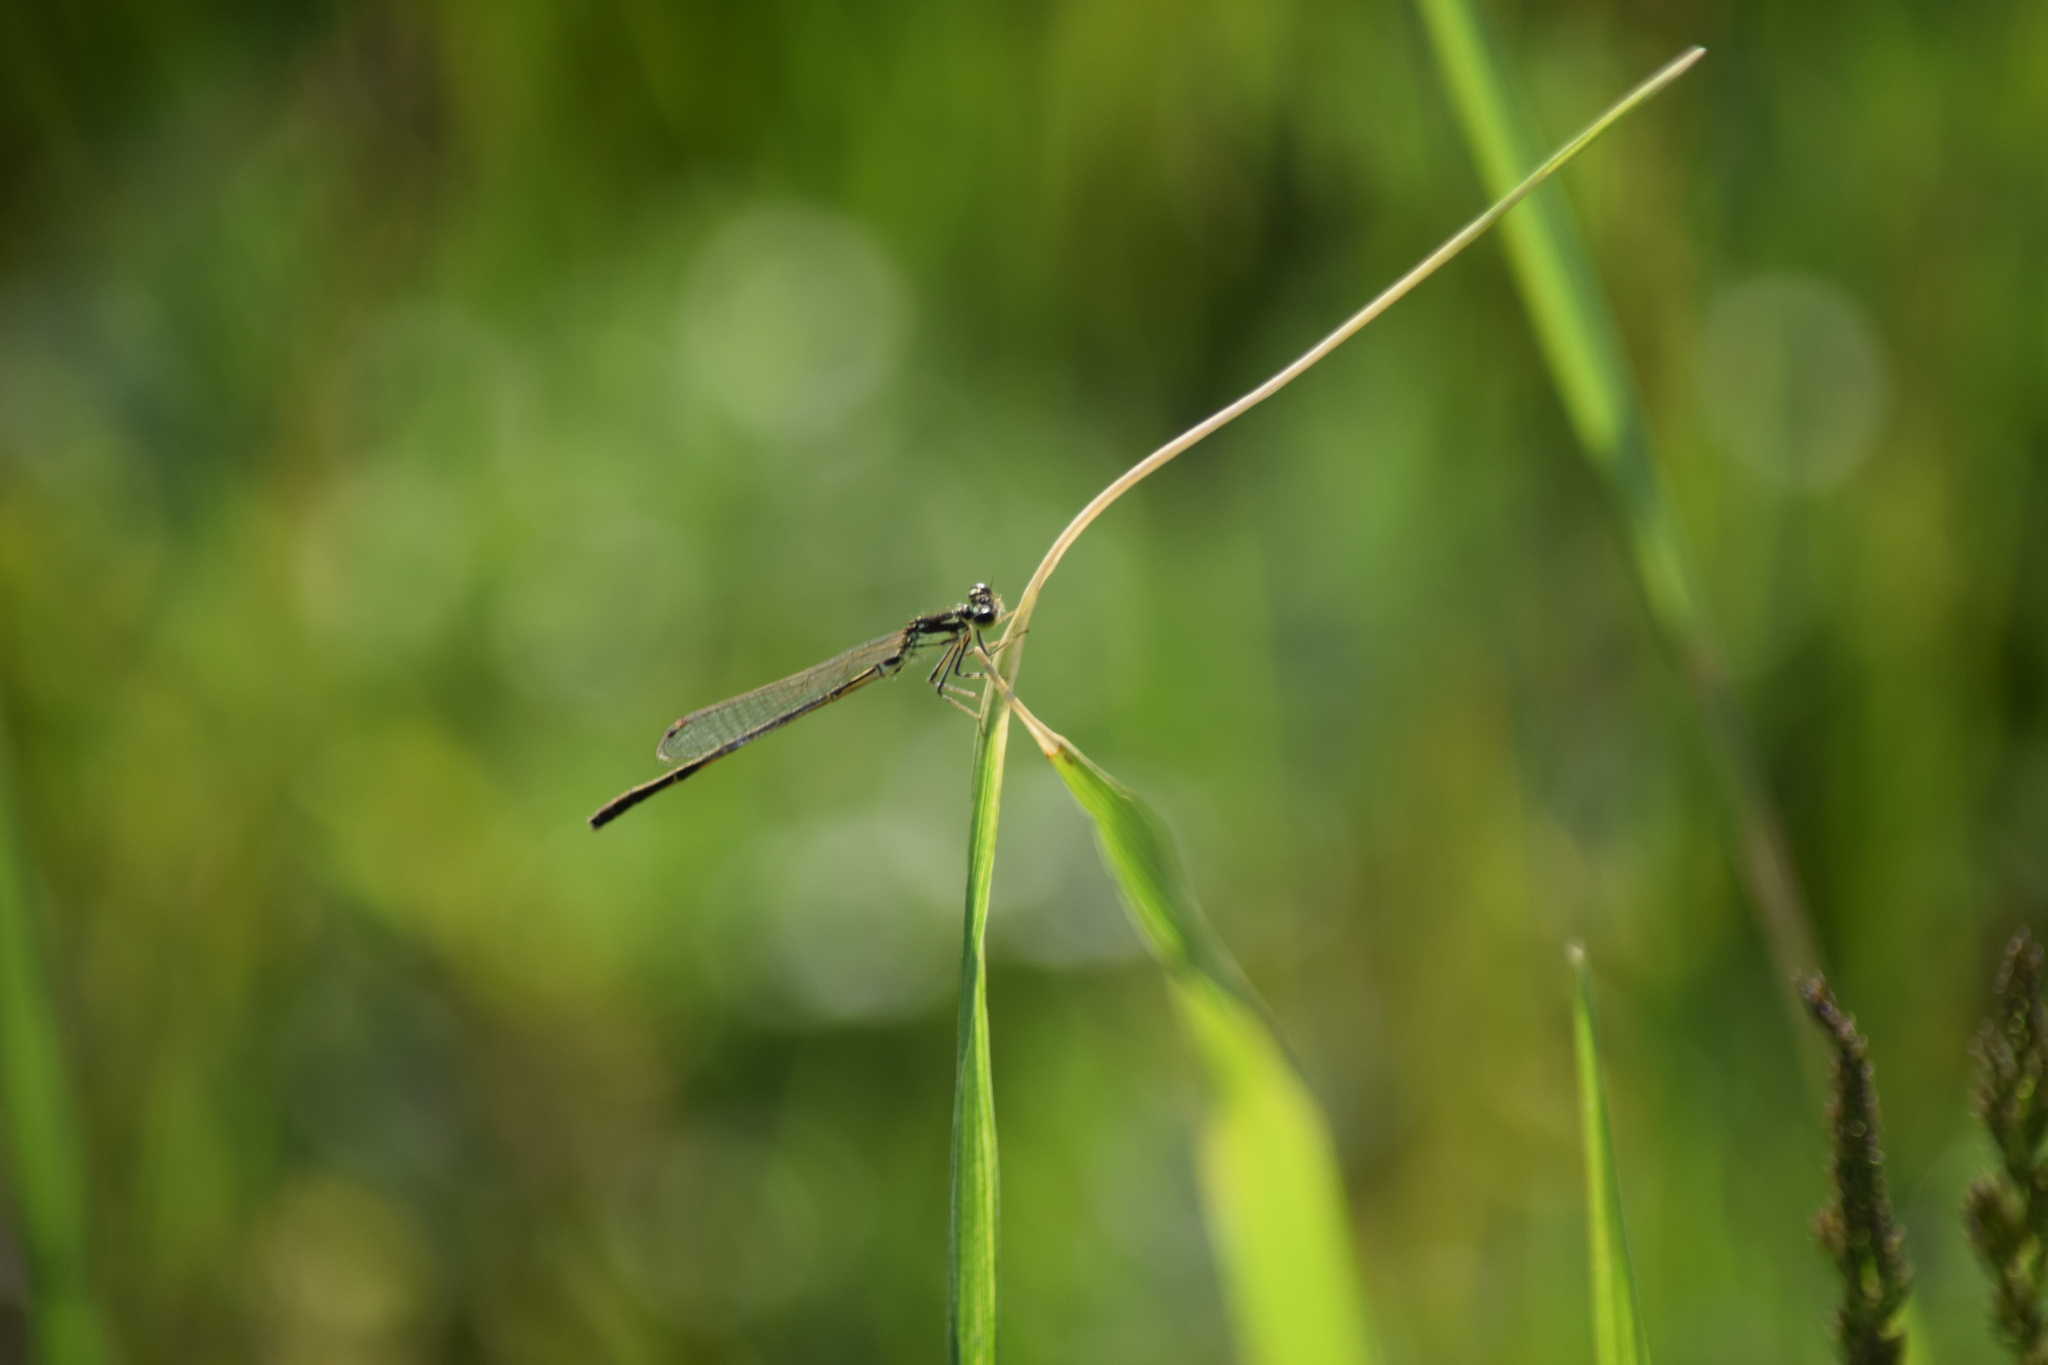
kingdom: Animalia
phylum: Arthropoda
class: Insecta
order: Odonata
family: Coenagrionidae
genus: Ischnura
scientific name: Ischnura posita
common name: Fragile forktail
